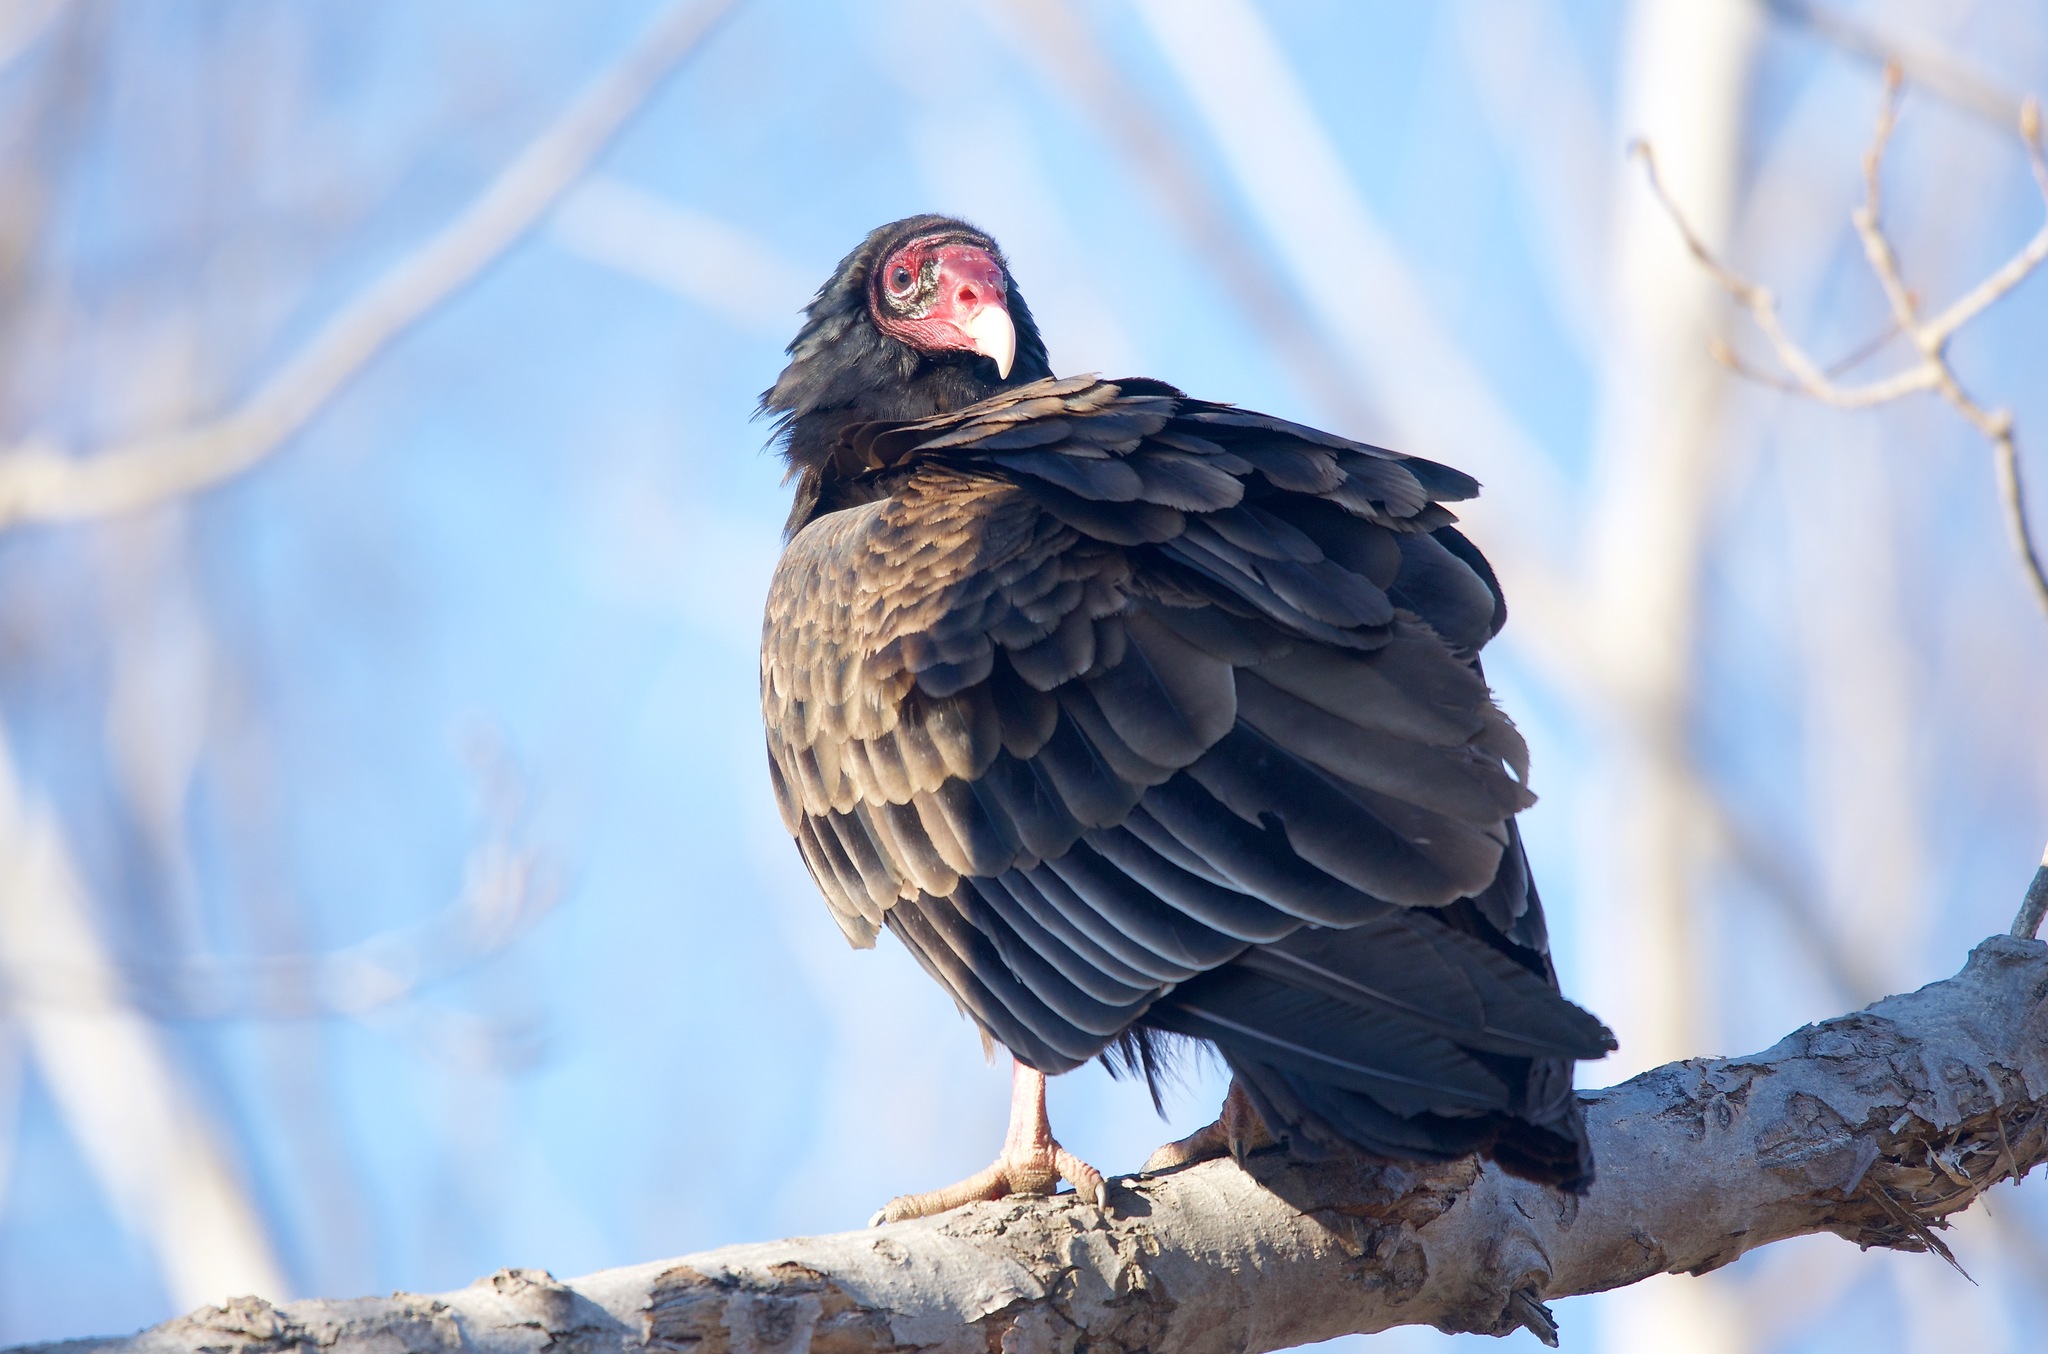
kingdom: Animalia
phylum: Chordata
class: Aves
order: Accipitriformes
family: Cathartidae
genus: Cathartes
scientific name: Cathartes aura
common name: Turkey vulture
